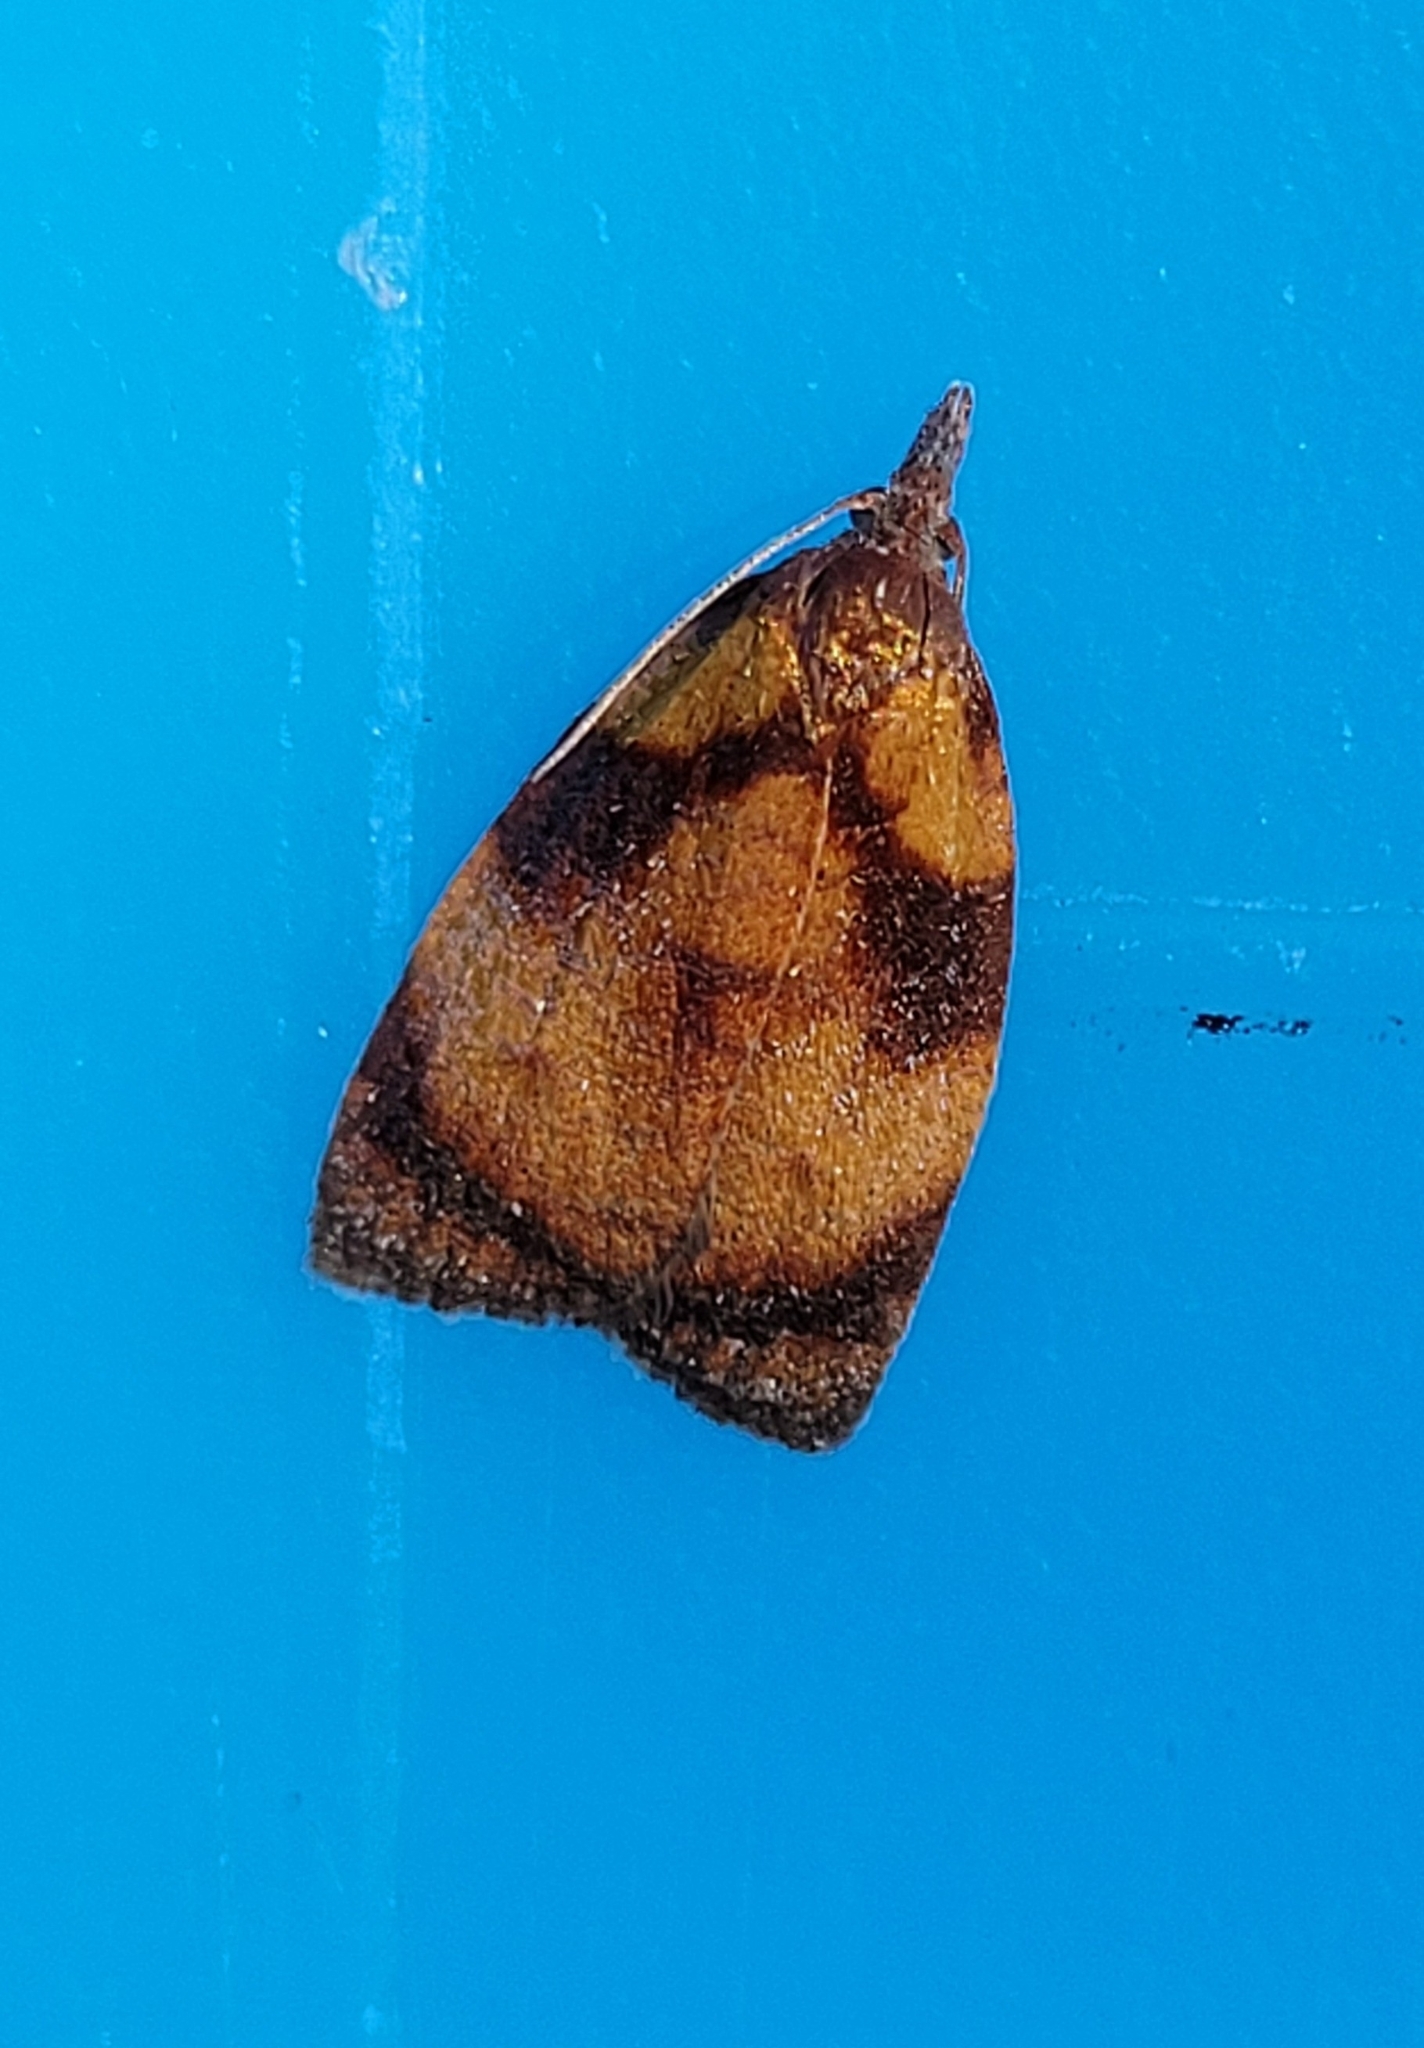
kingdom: Animalia
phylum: Arthropoda
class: Insecta
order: Lepidoptera
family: Tortricidae
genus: Sparganothis
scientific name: Sparganothis flavibasana
